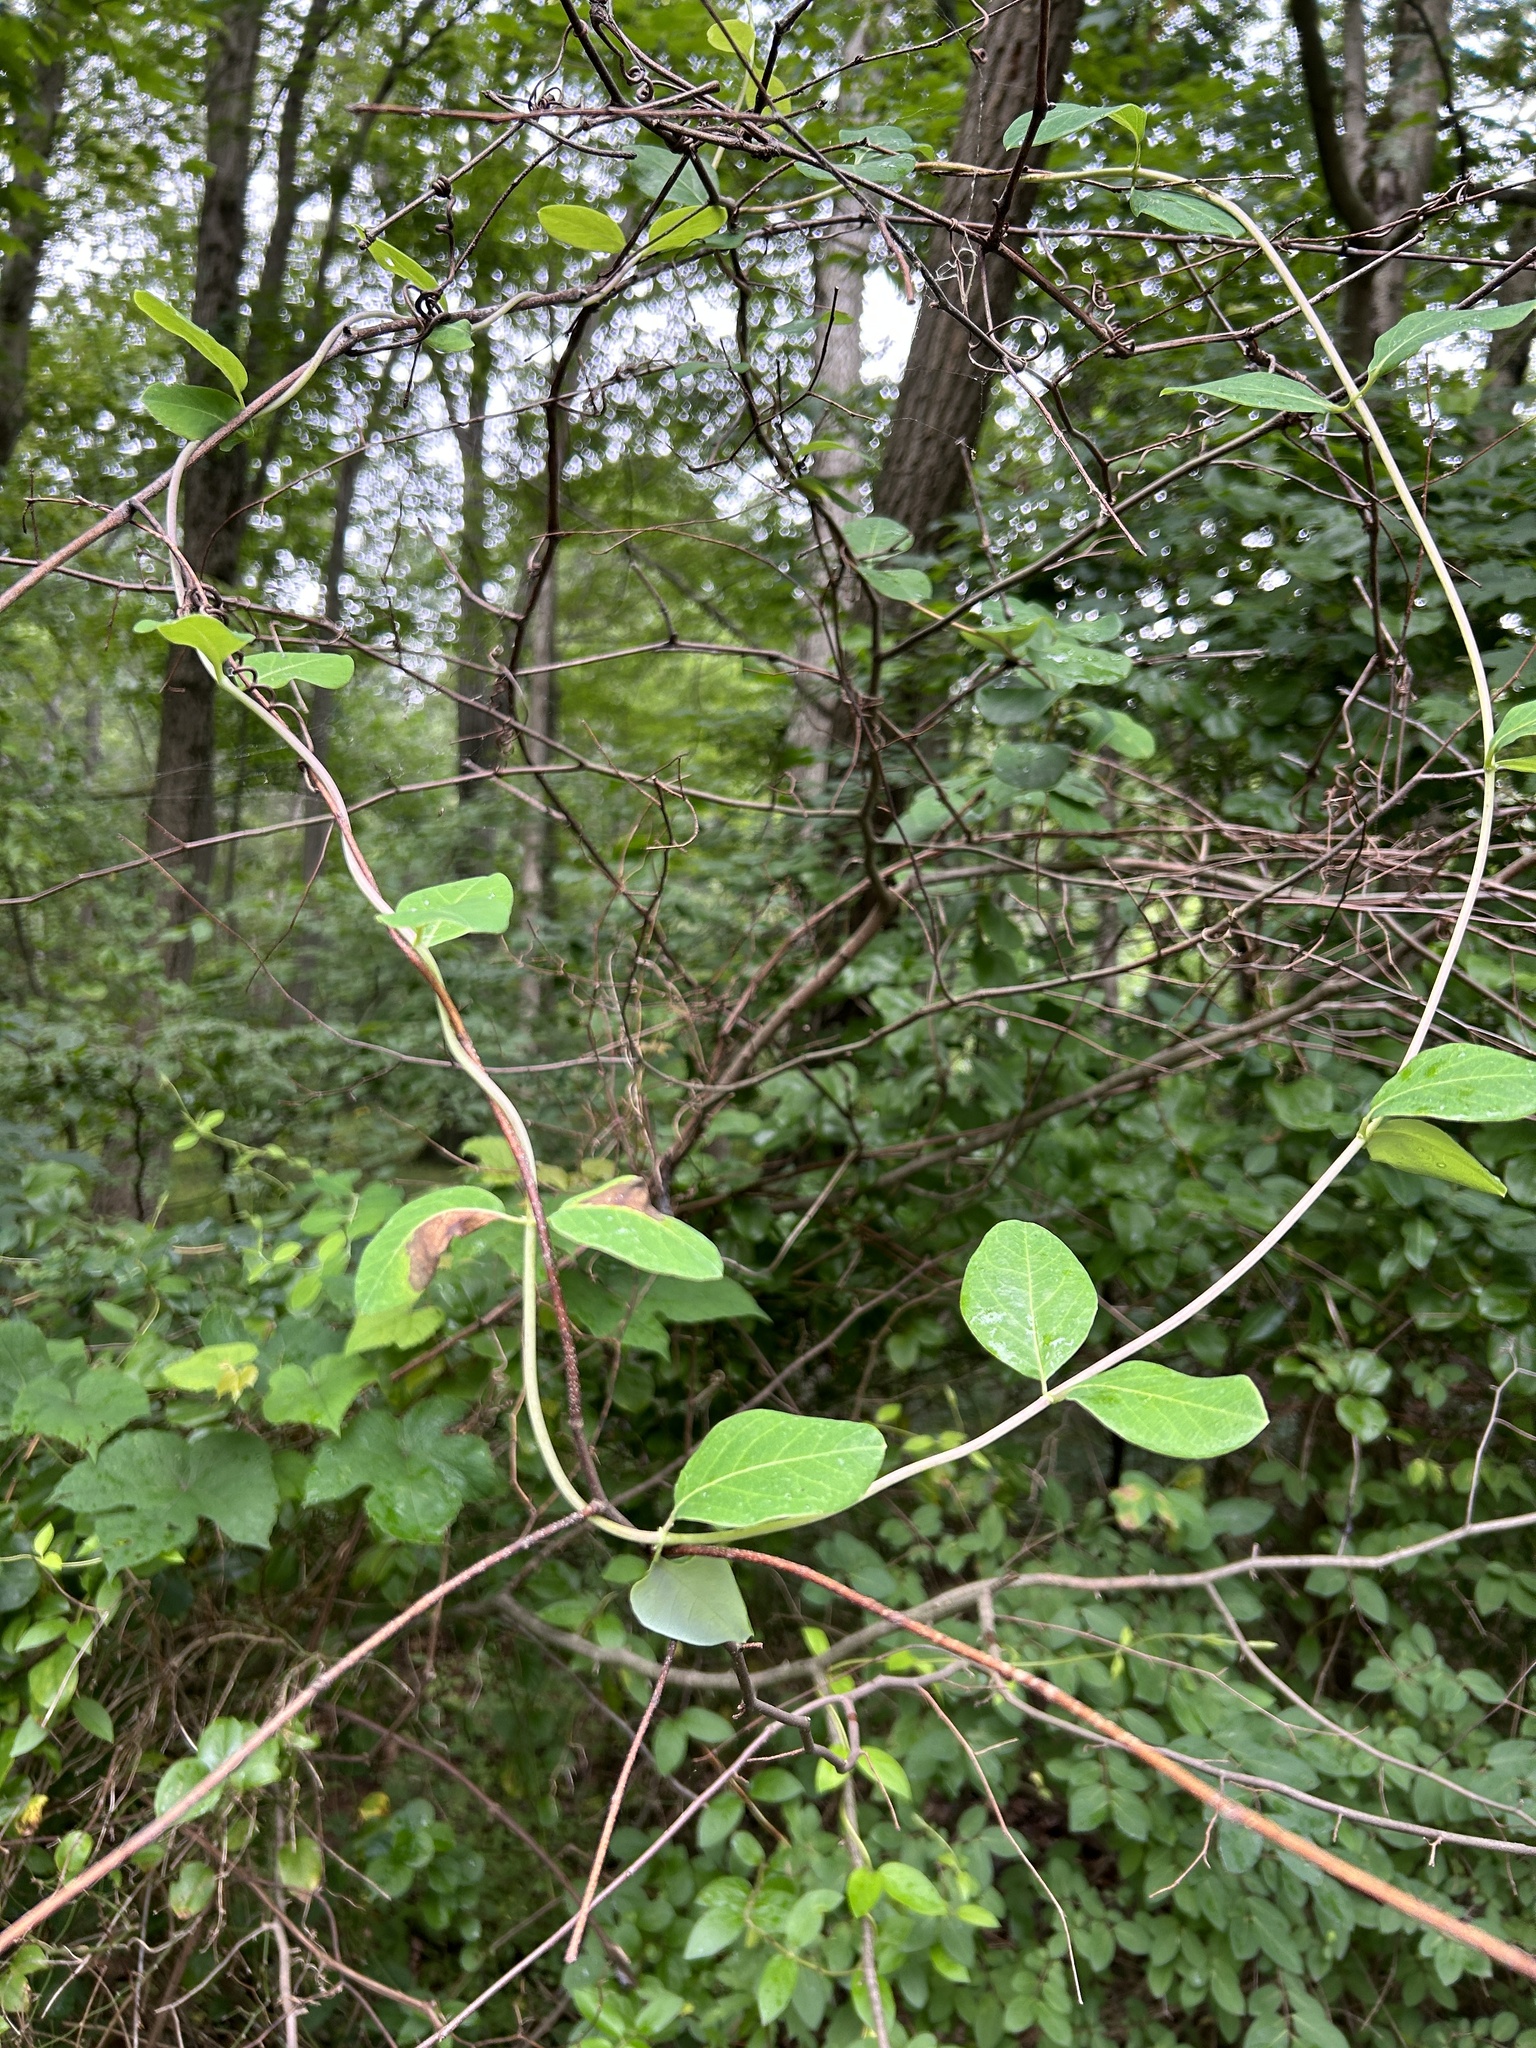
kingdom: Plantae
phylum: Tracheophyta
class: Magnoliopsida
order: Dipsacales
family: Caprifoliaceae
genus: Lonicera
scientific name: Lonicera sempervirens
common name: Coral honeysuckle
